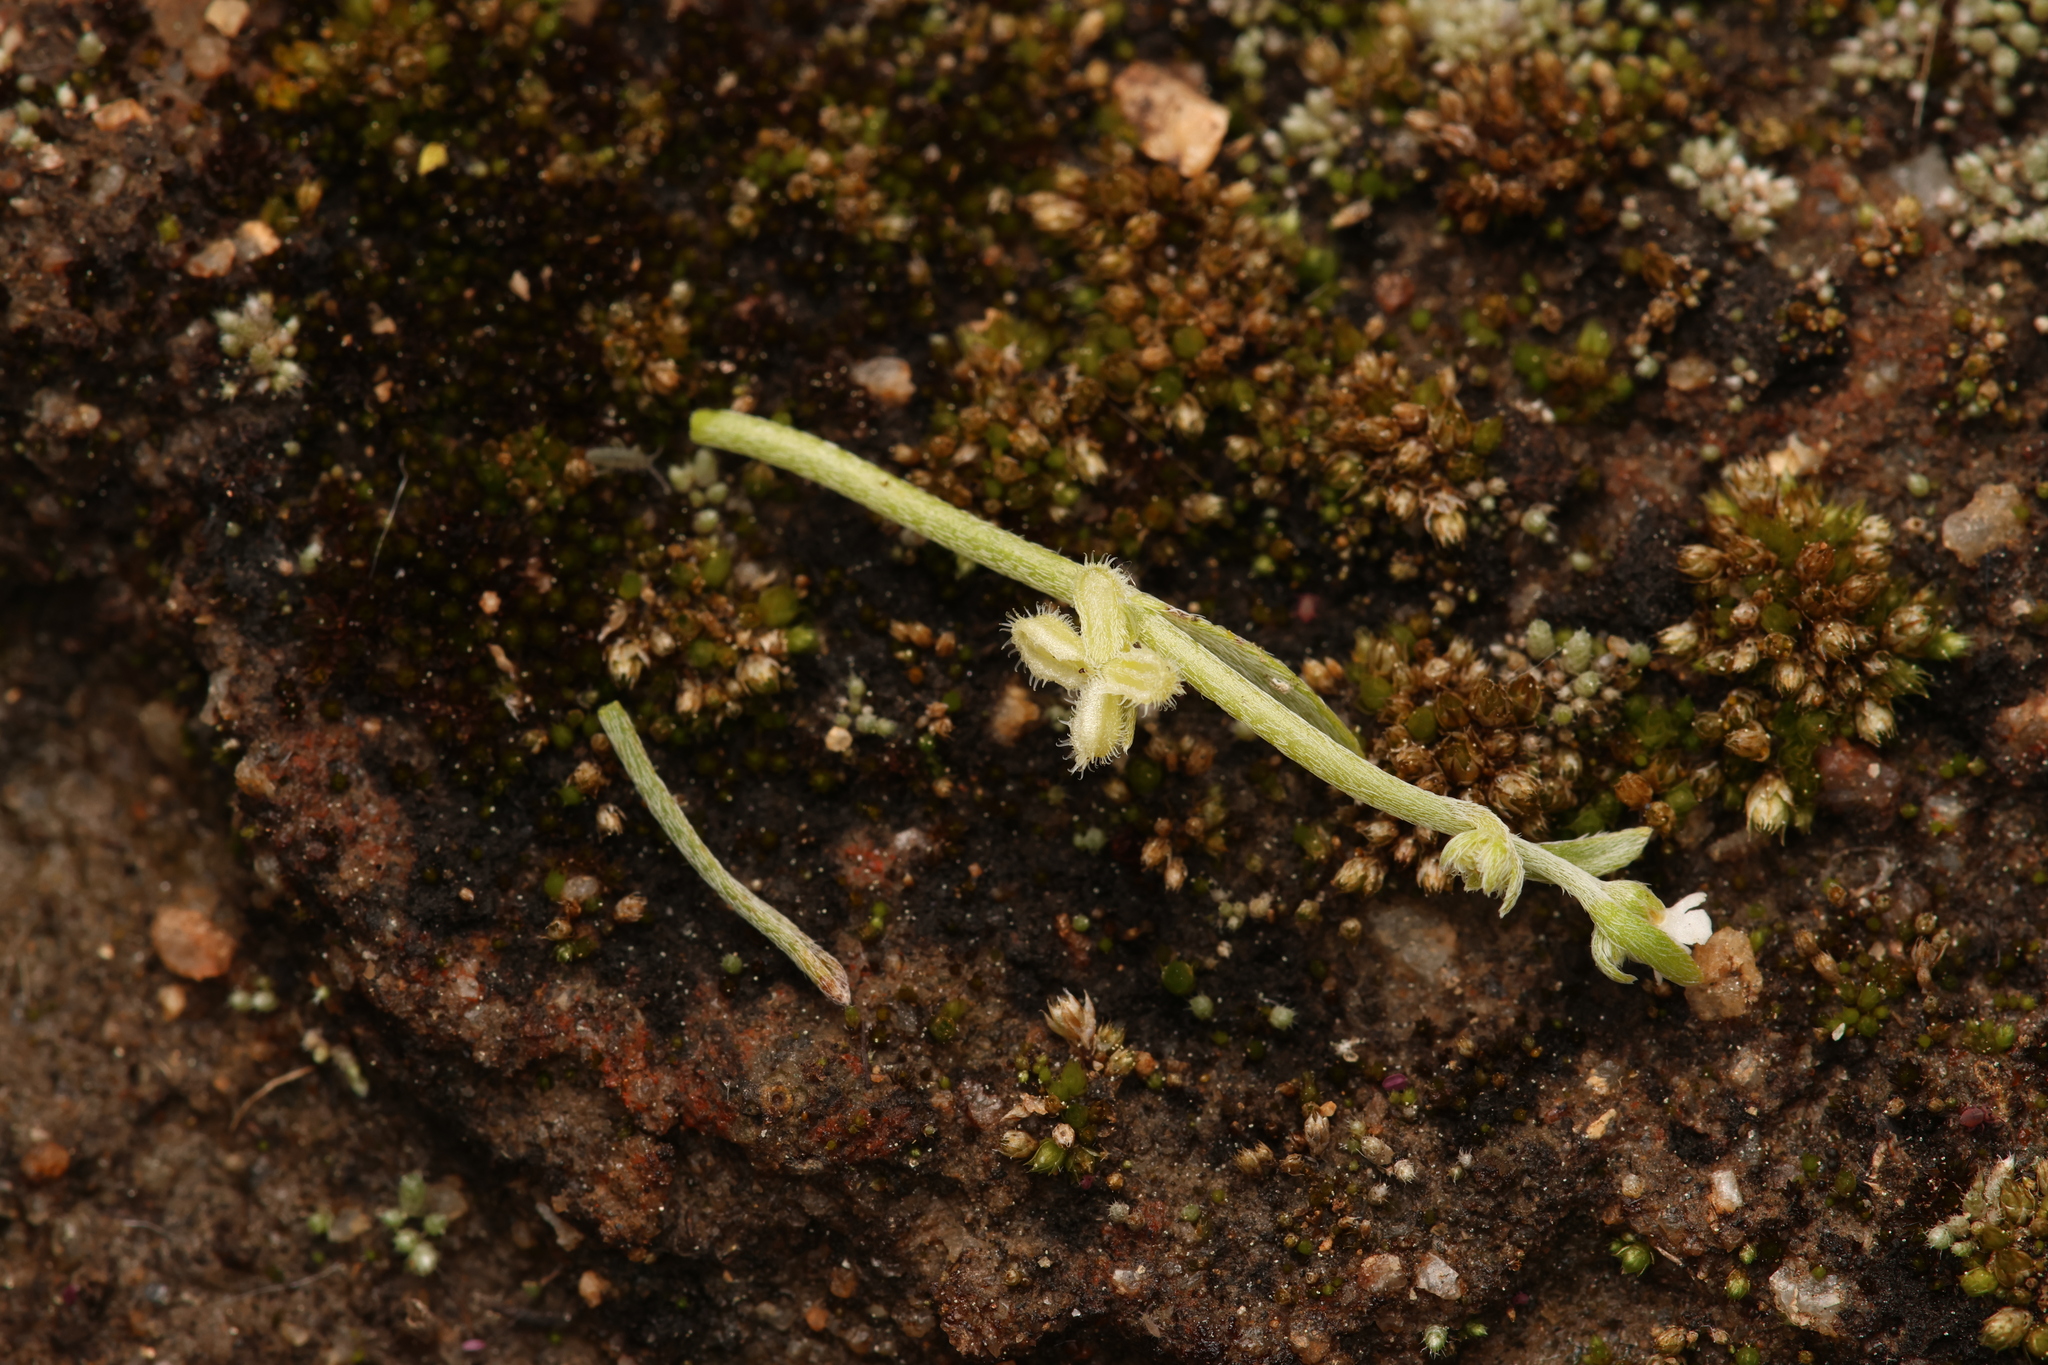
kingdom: Plantae
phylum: Tracheophyta
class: Magnoliopsida
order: Boraginales
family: Boraginaceae
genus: Pectocarya
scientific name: Pectocarya anisocarpa
